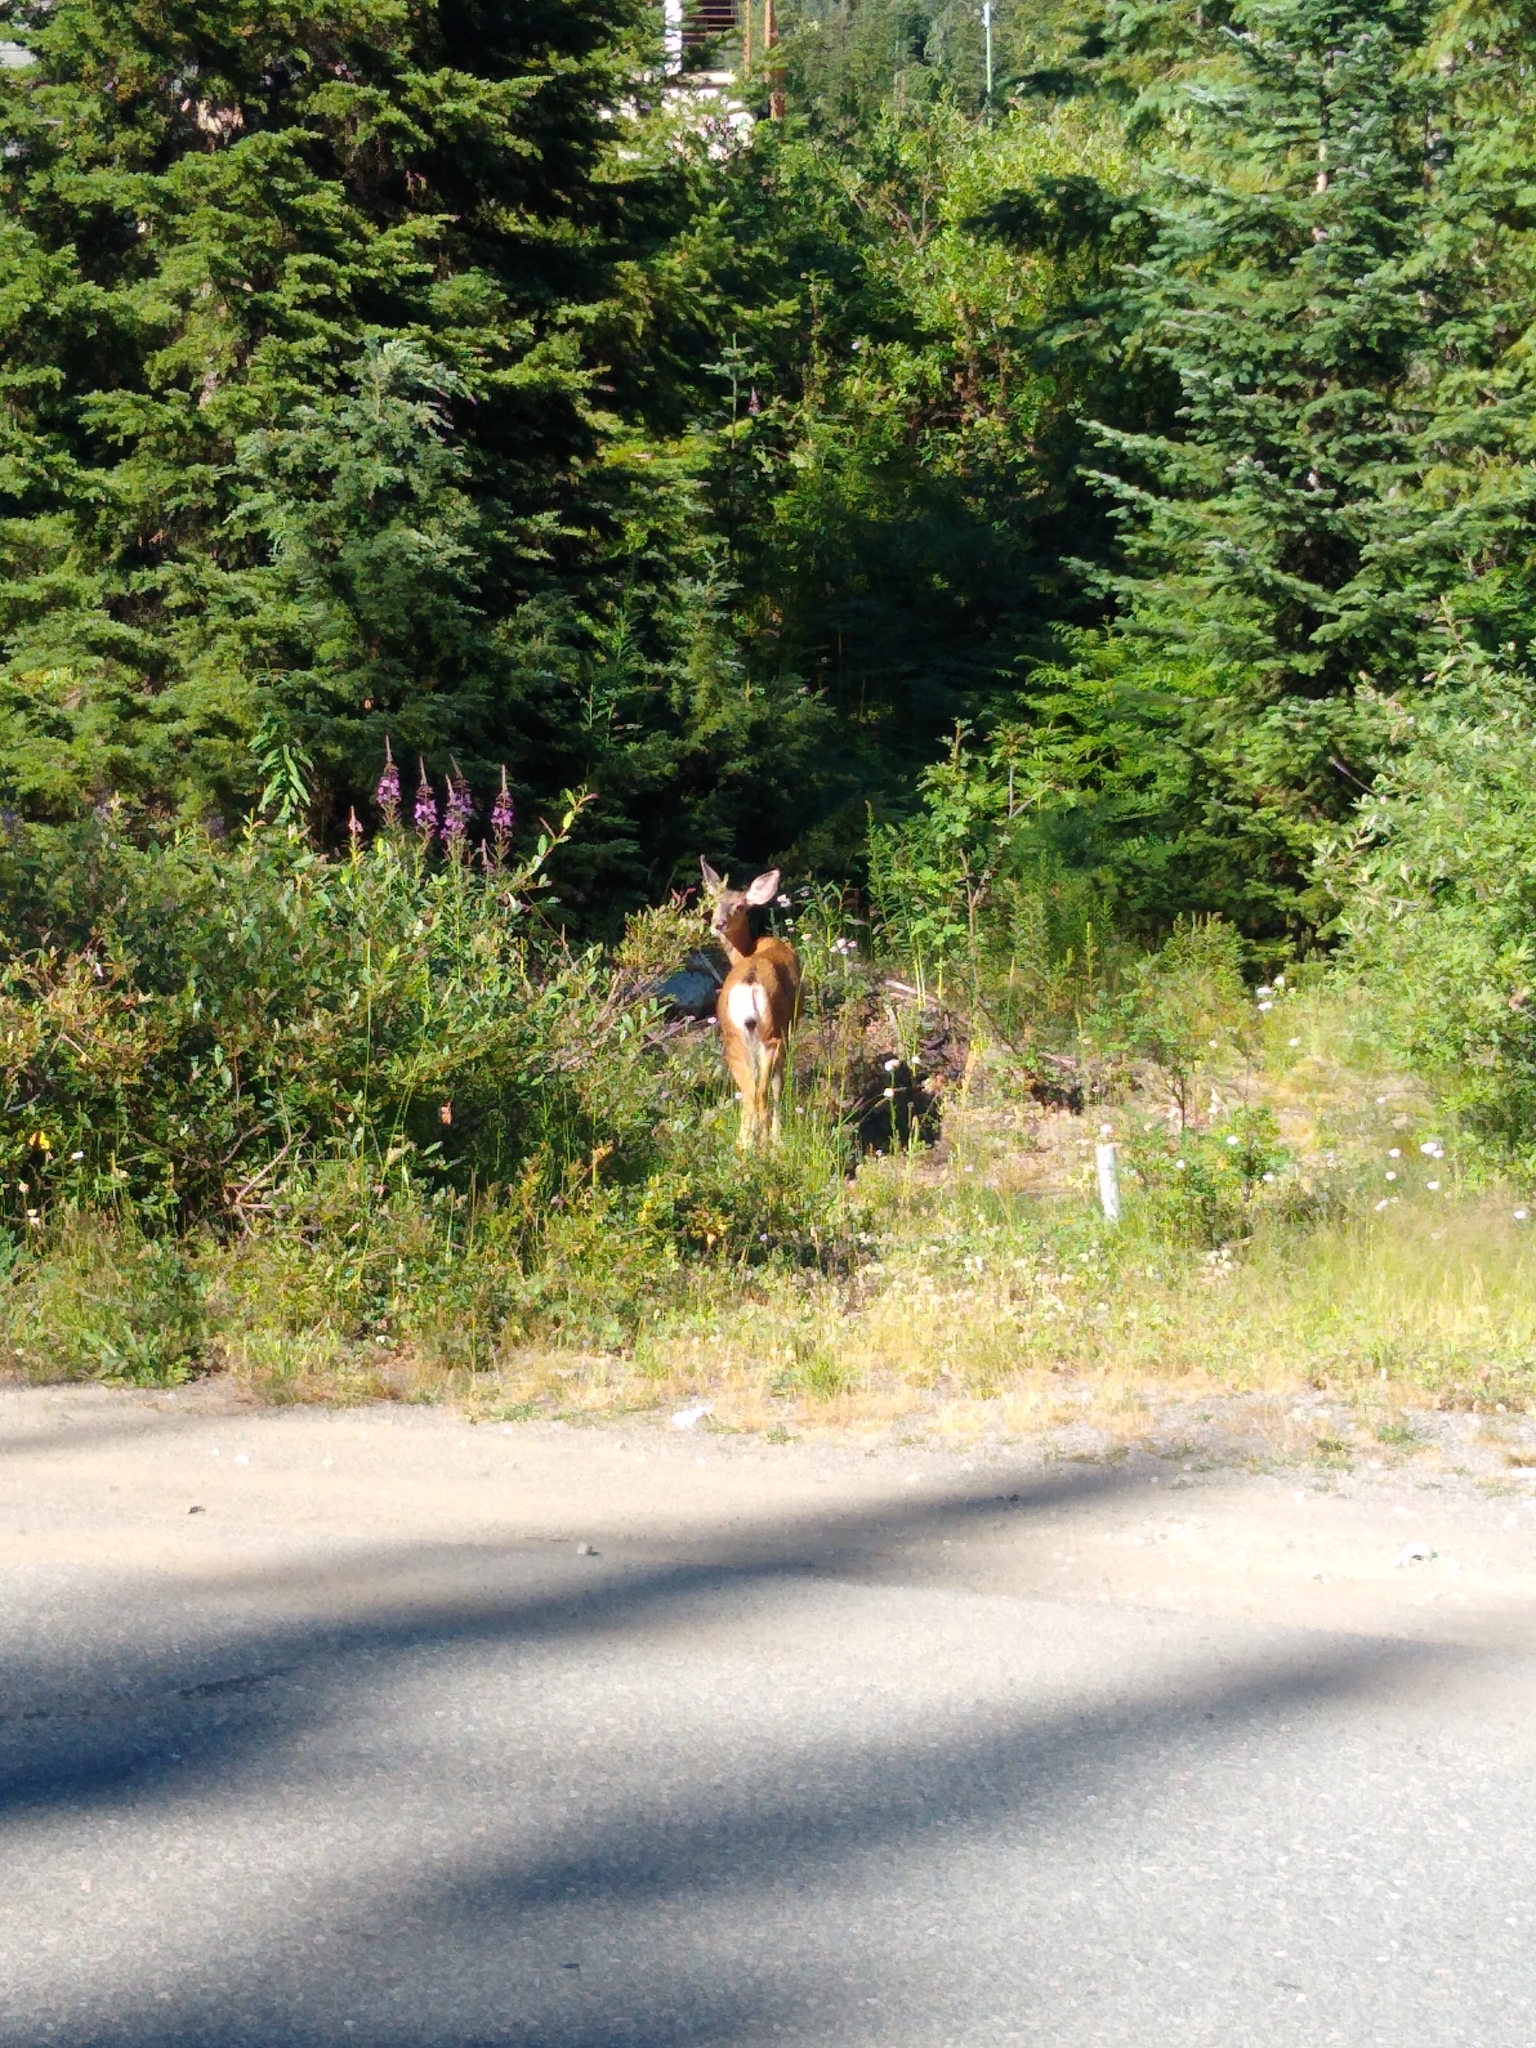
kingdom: Animalia
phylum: Chordata
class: Mammalia
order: Artiodactyla
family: Cervidae
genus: Odocoileus
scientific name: Odocoileus hemionus
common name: Mule deer
